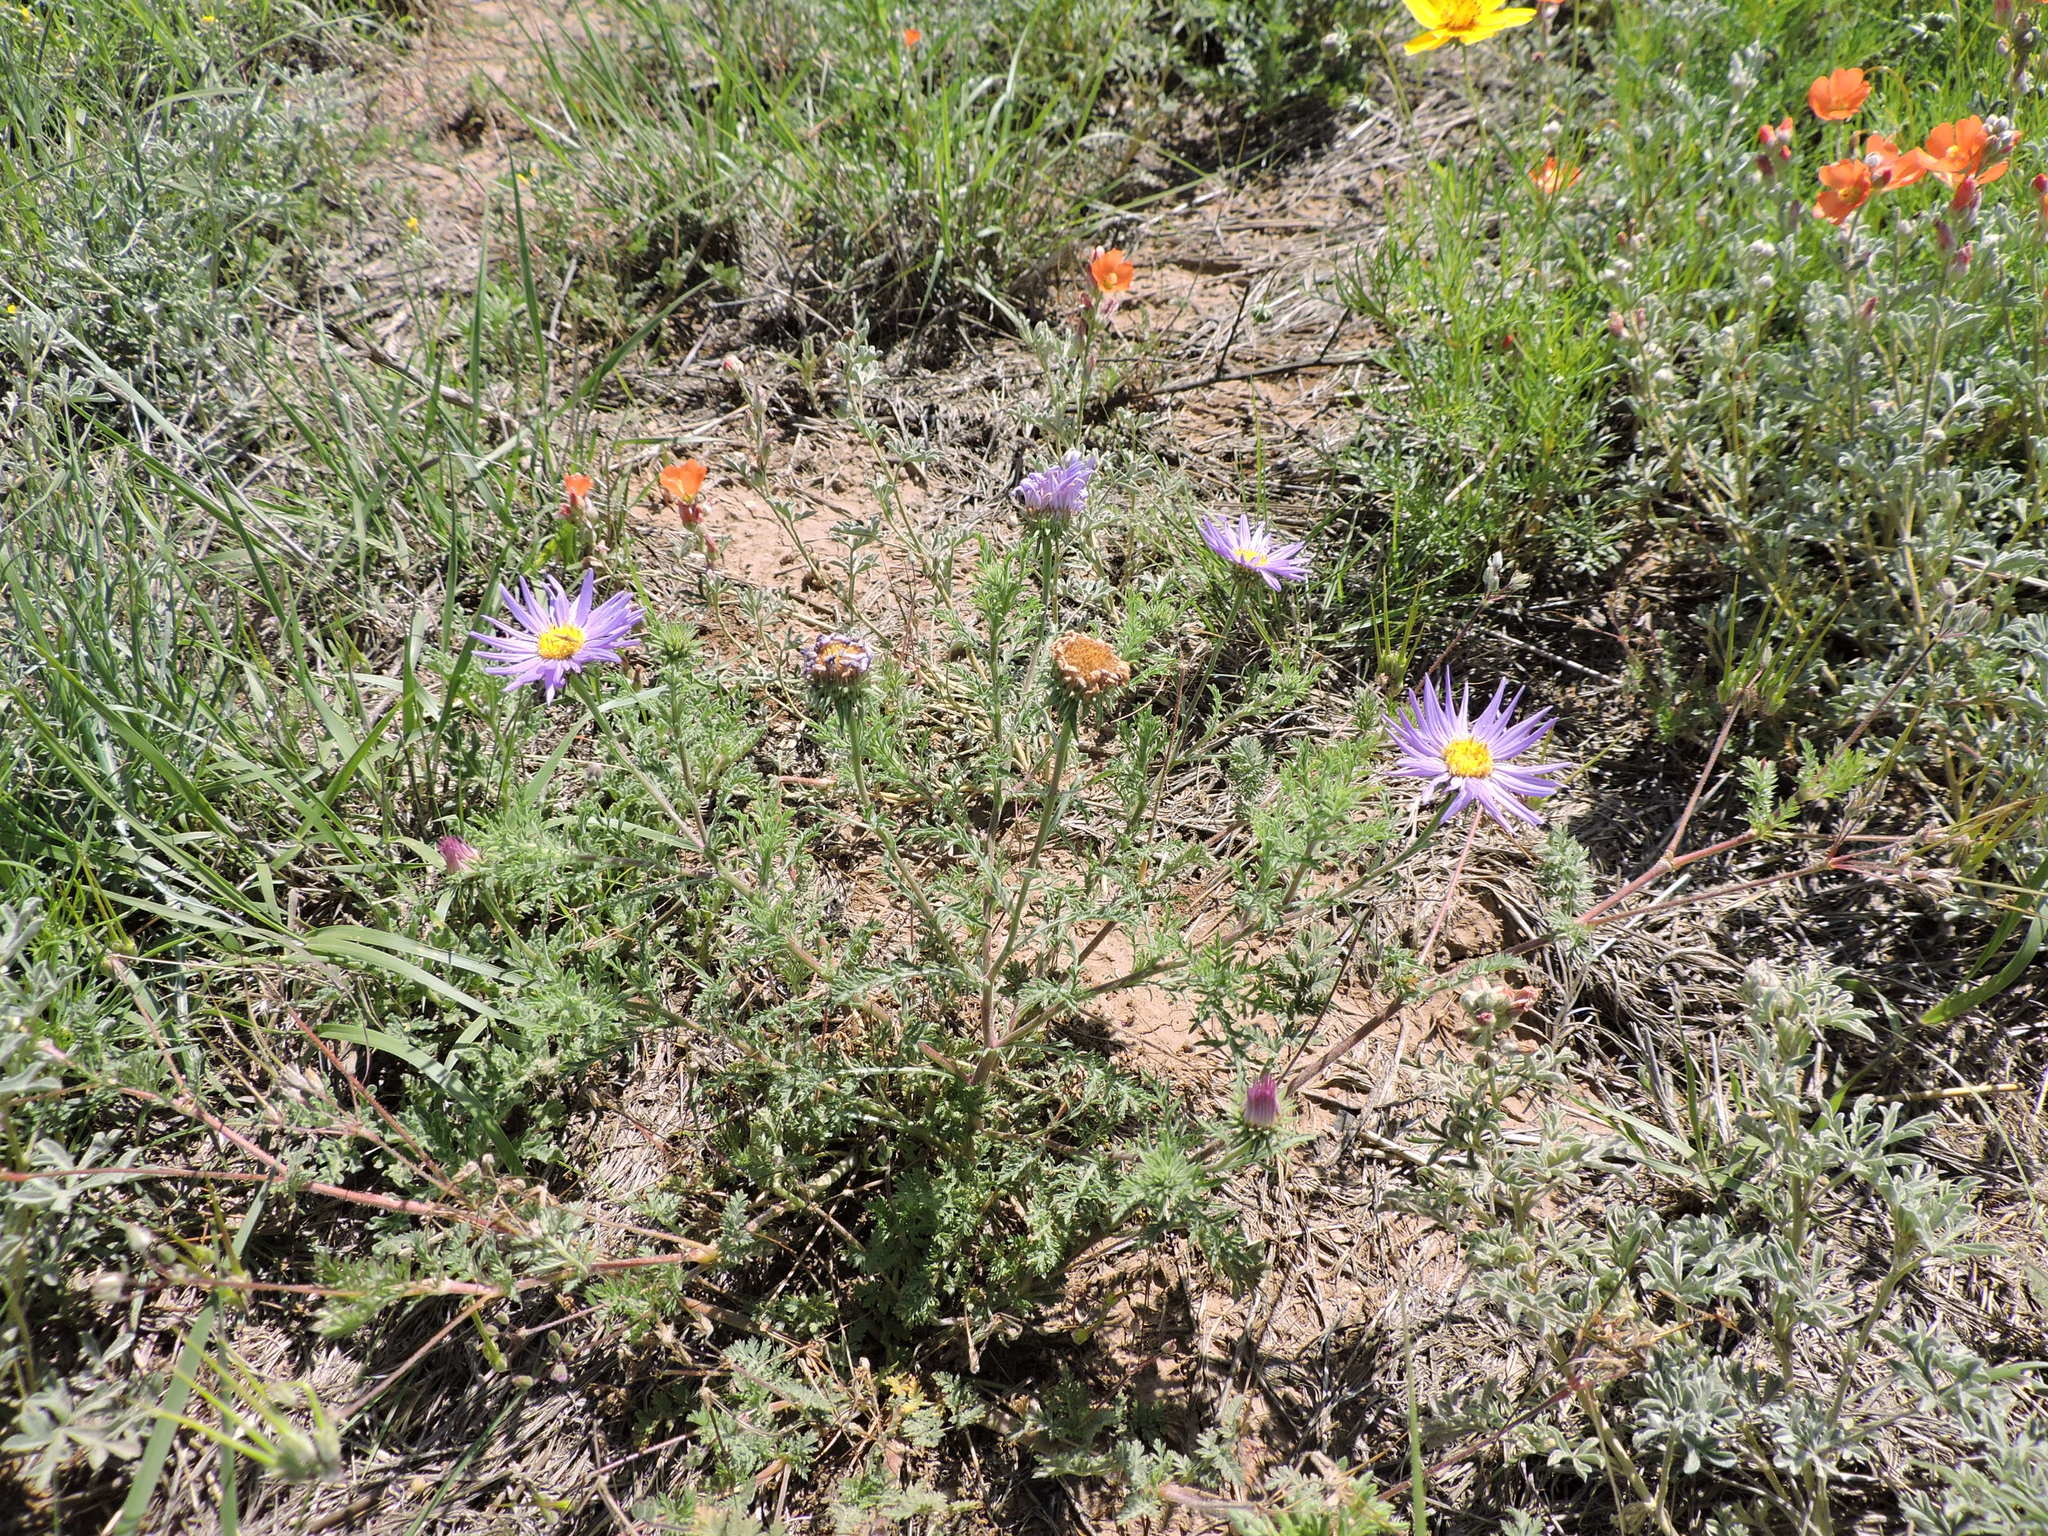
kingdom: Plantae
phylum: Tracheophyta
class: Magnoliopsida
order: Asterales
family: Asteraceae
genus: Machaeranthera
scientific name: Machaeranthera tanacetifolia
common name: Tansy-aster
